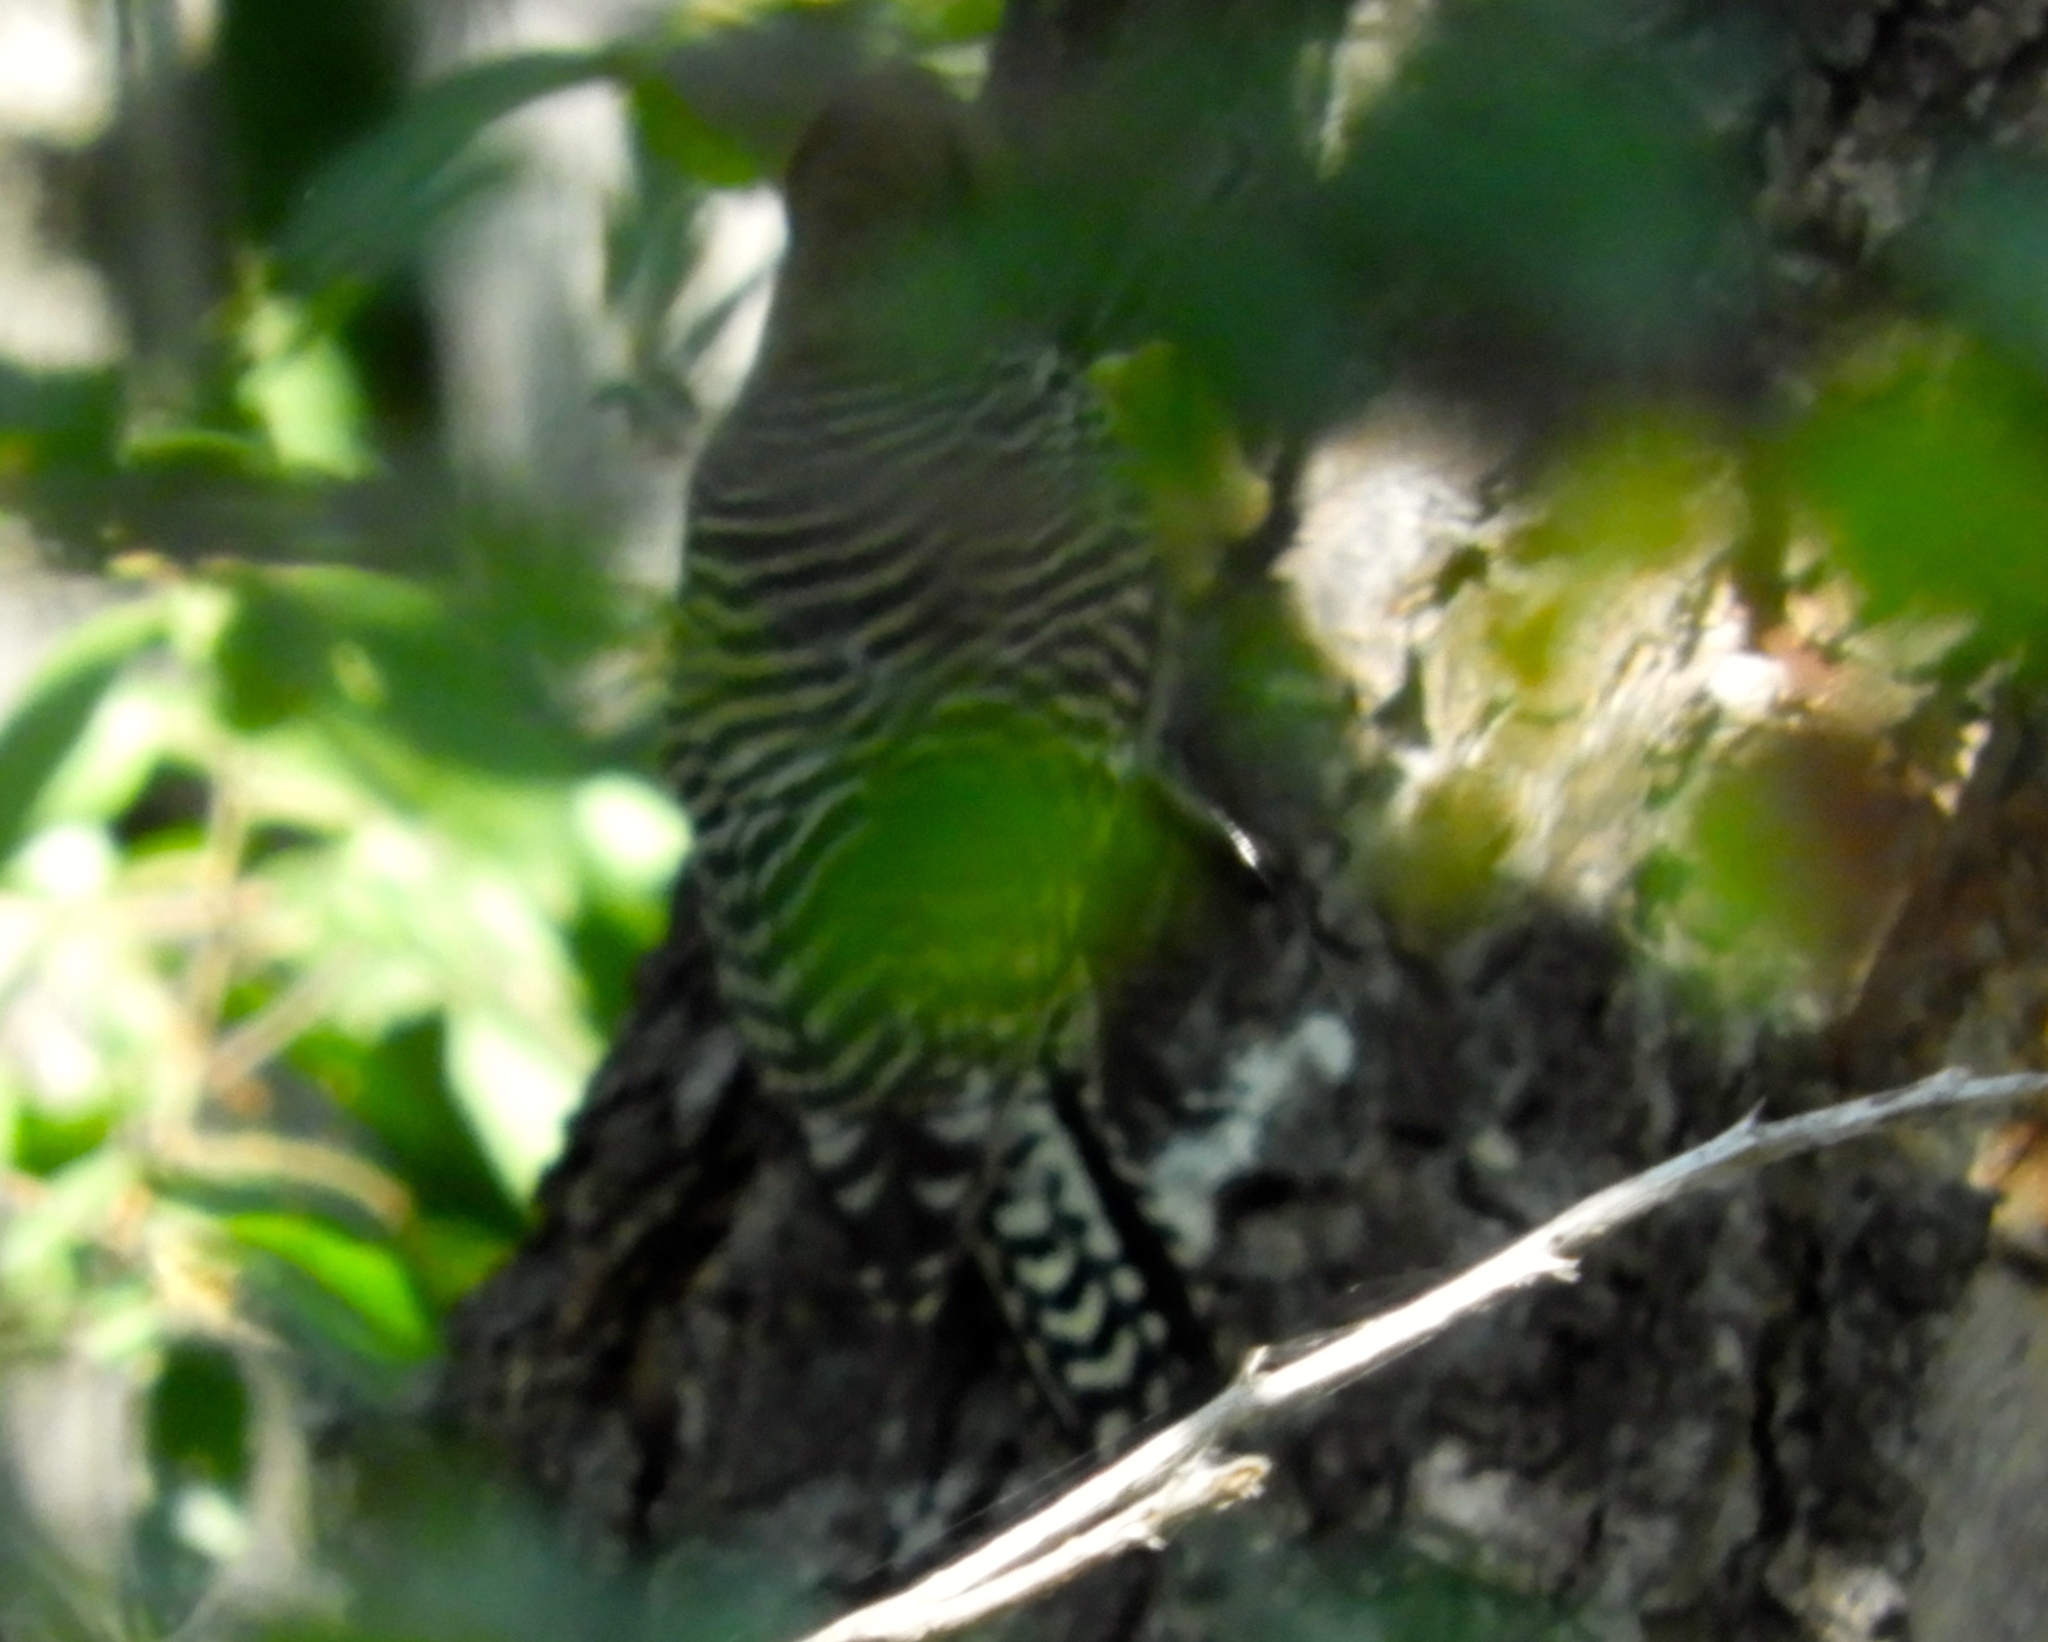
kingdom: Animalia
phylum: Chordata
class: Aves
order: Piciformes
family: Picidae
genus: Melanerpes
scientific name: Melanerpes uropygialis
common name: Gila woodpecker
